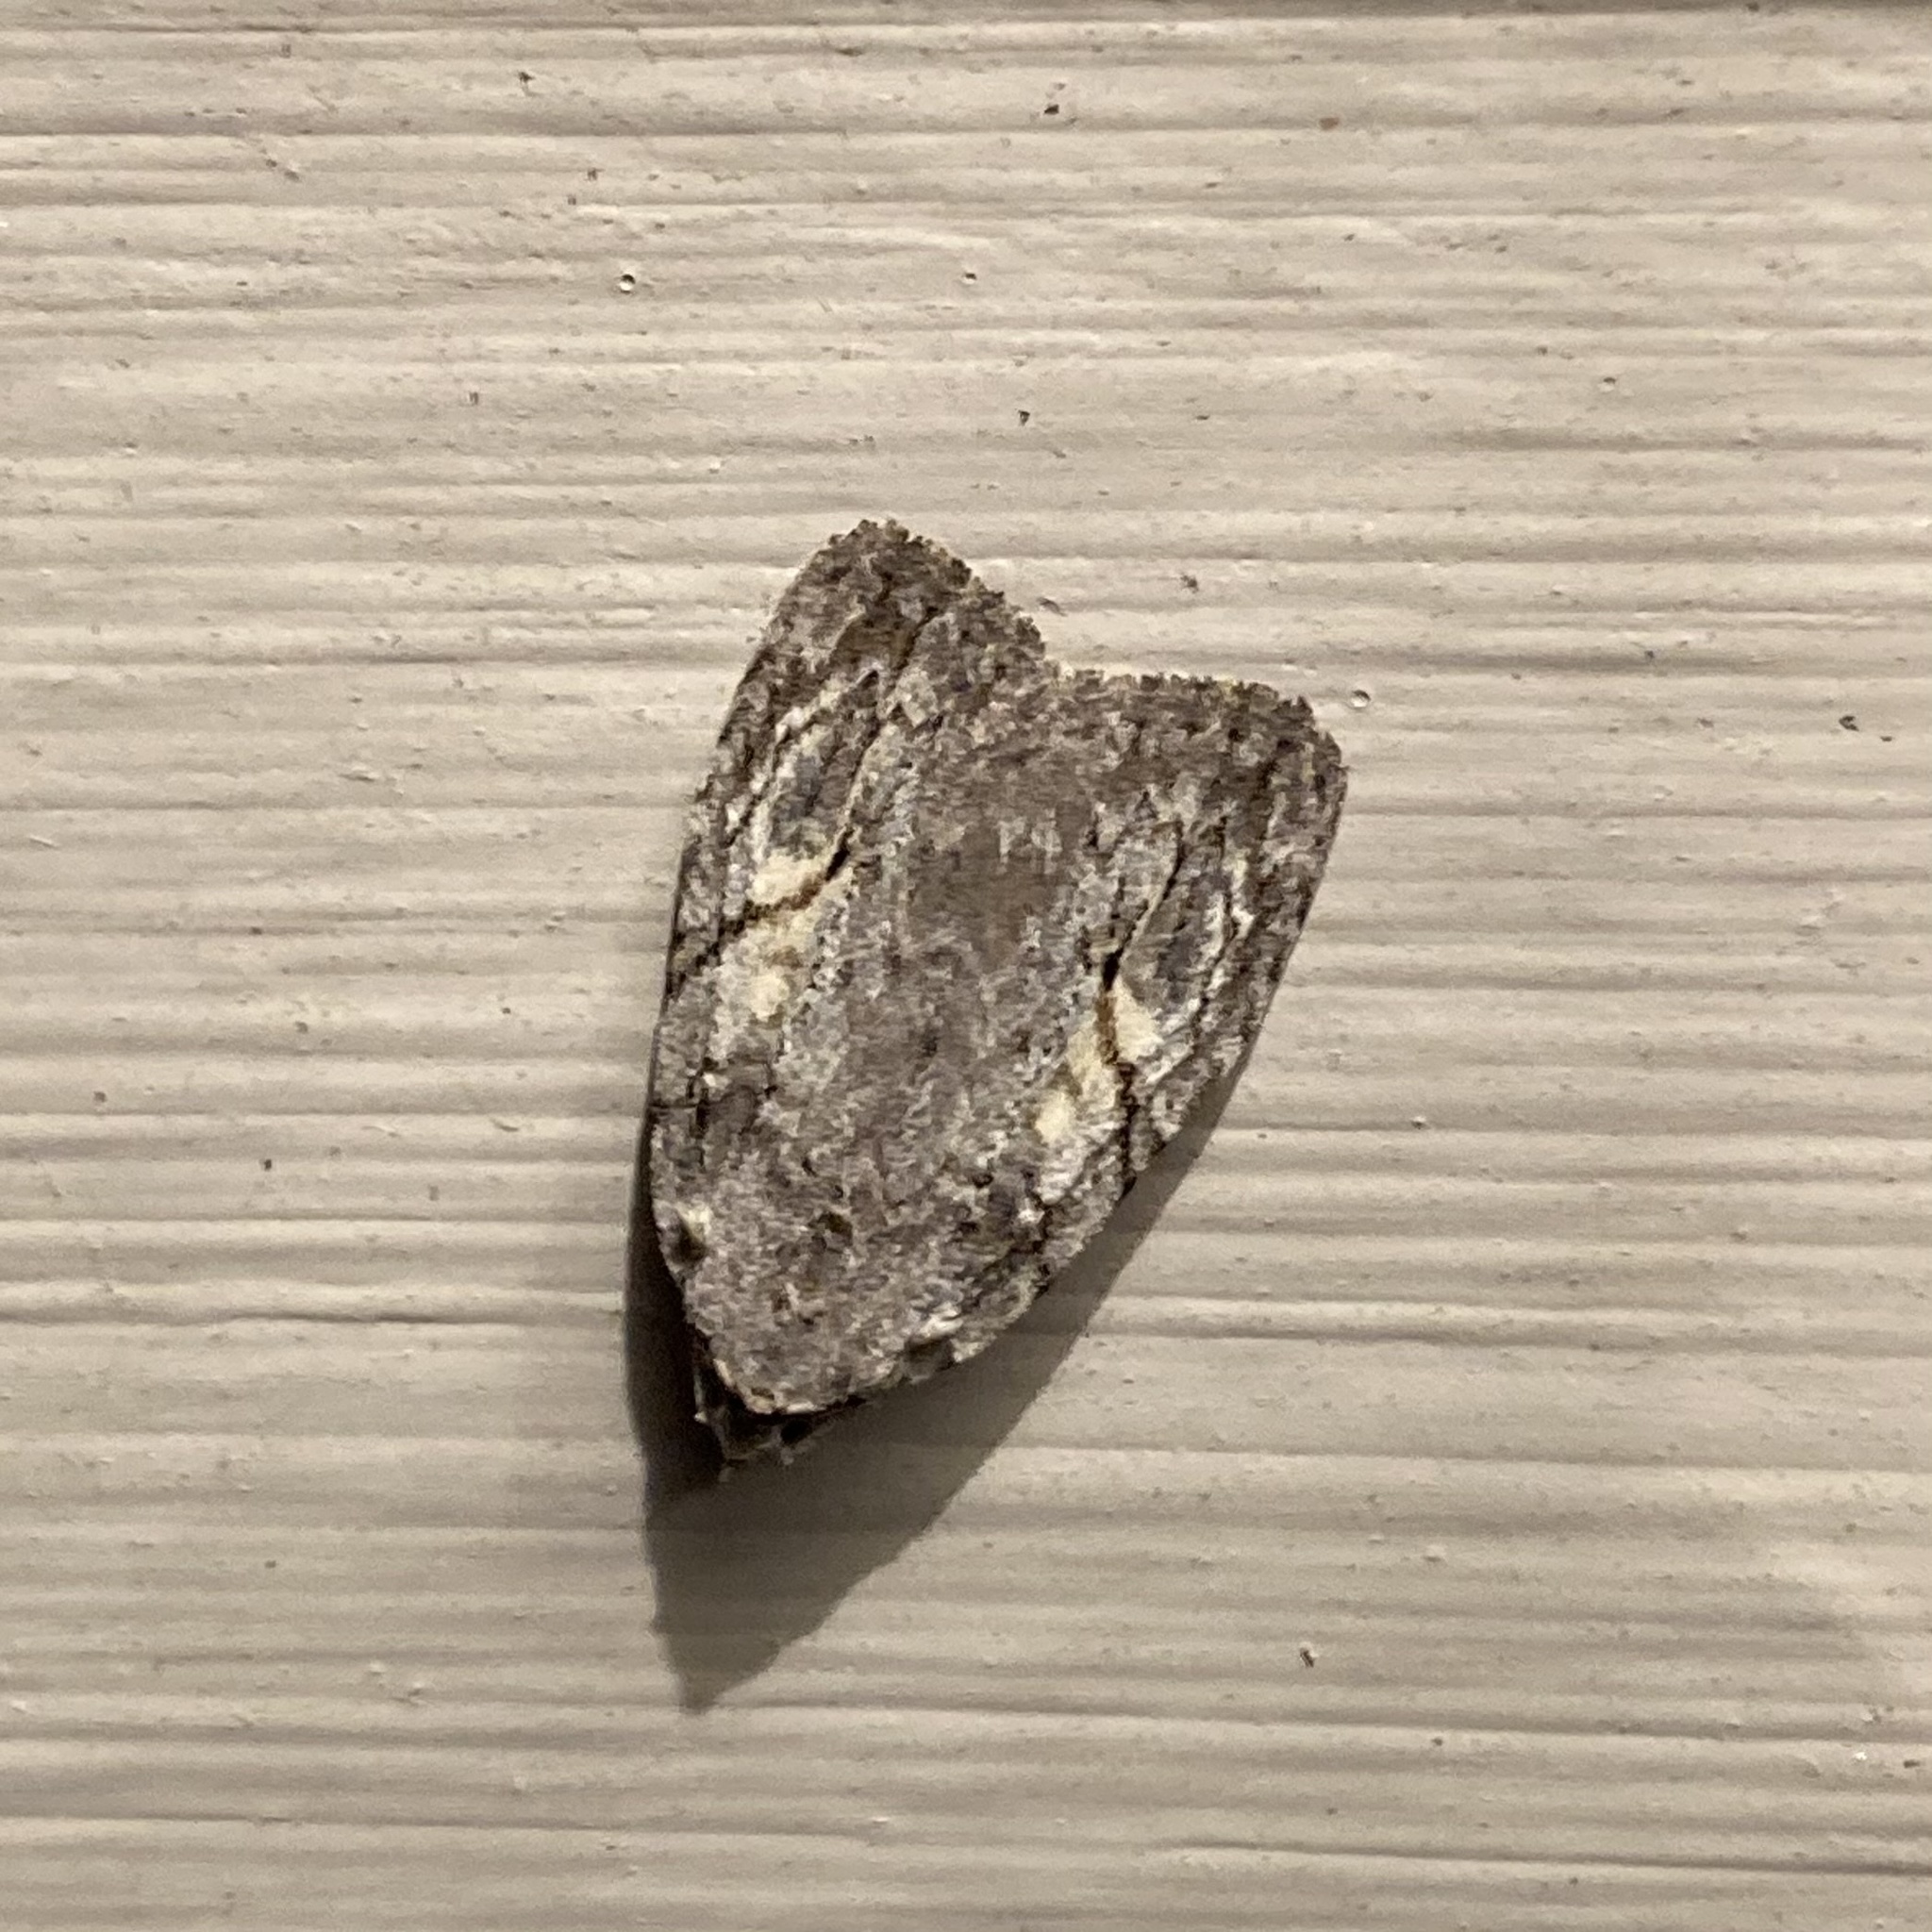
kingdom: Animalia
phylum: Arthropoda
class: Insecta
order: Lepidoptera
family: Noctuidae
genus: Balsa
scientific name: Balsa labecula
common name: White-blotched balsa moth
